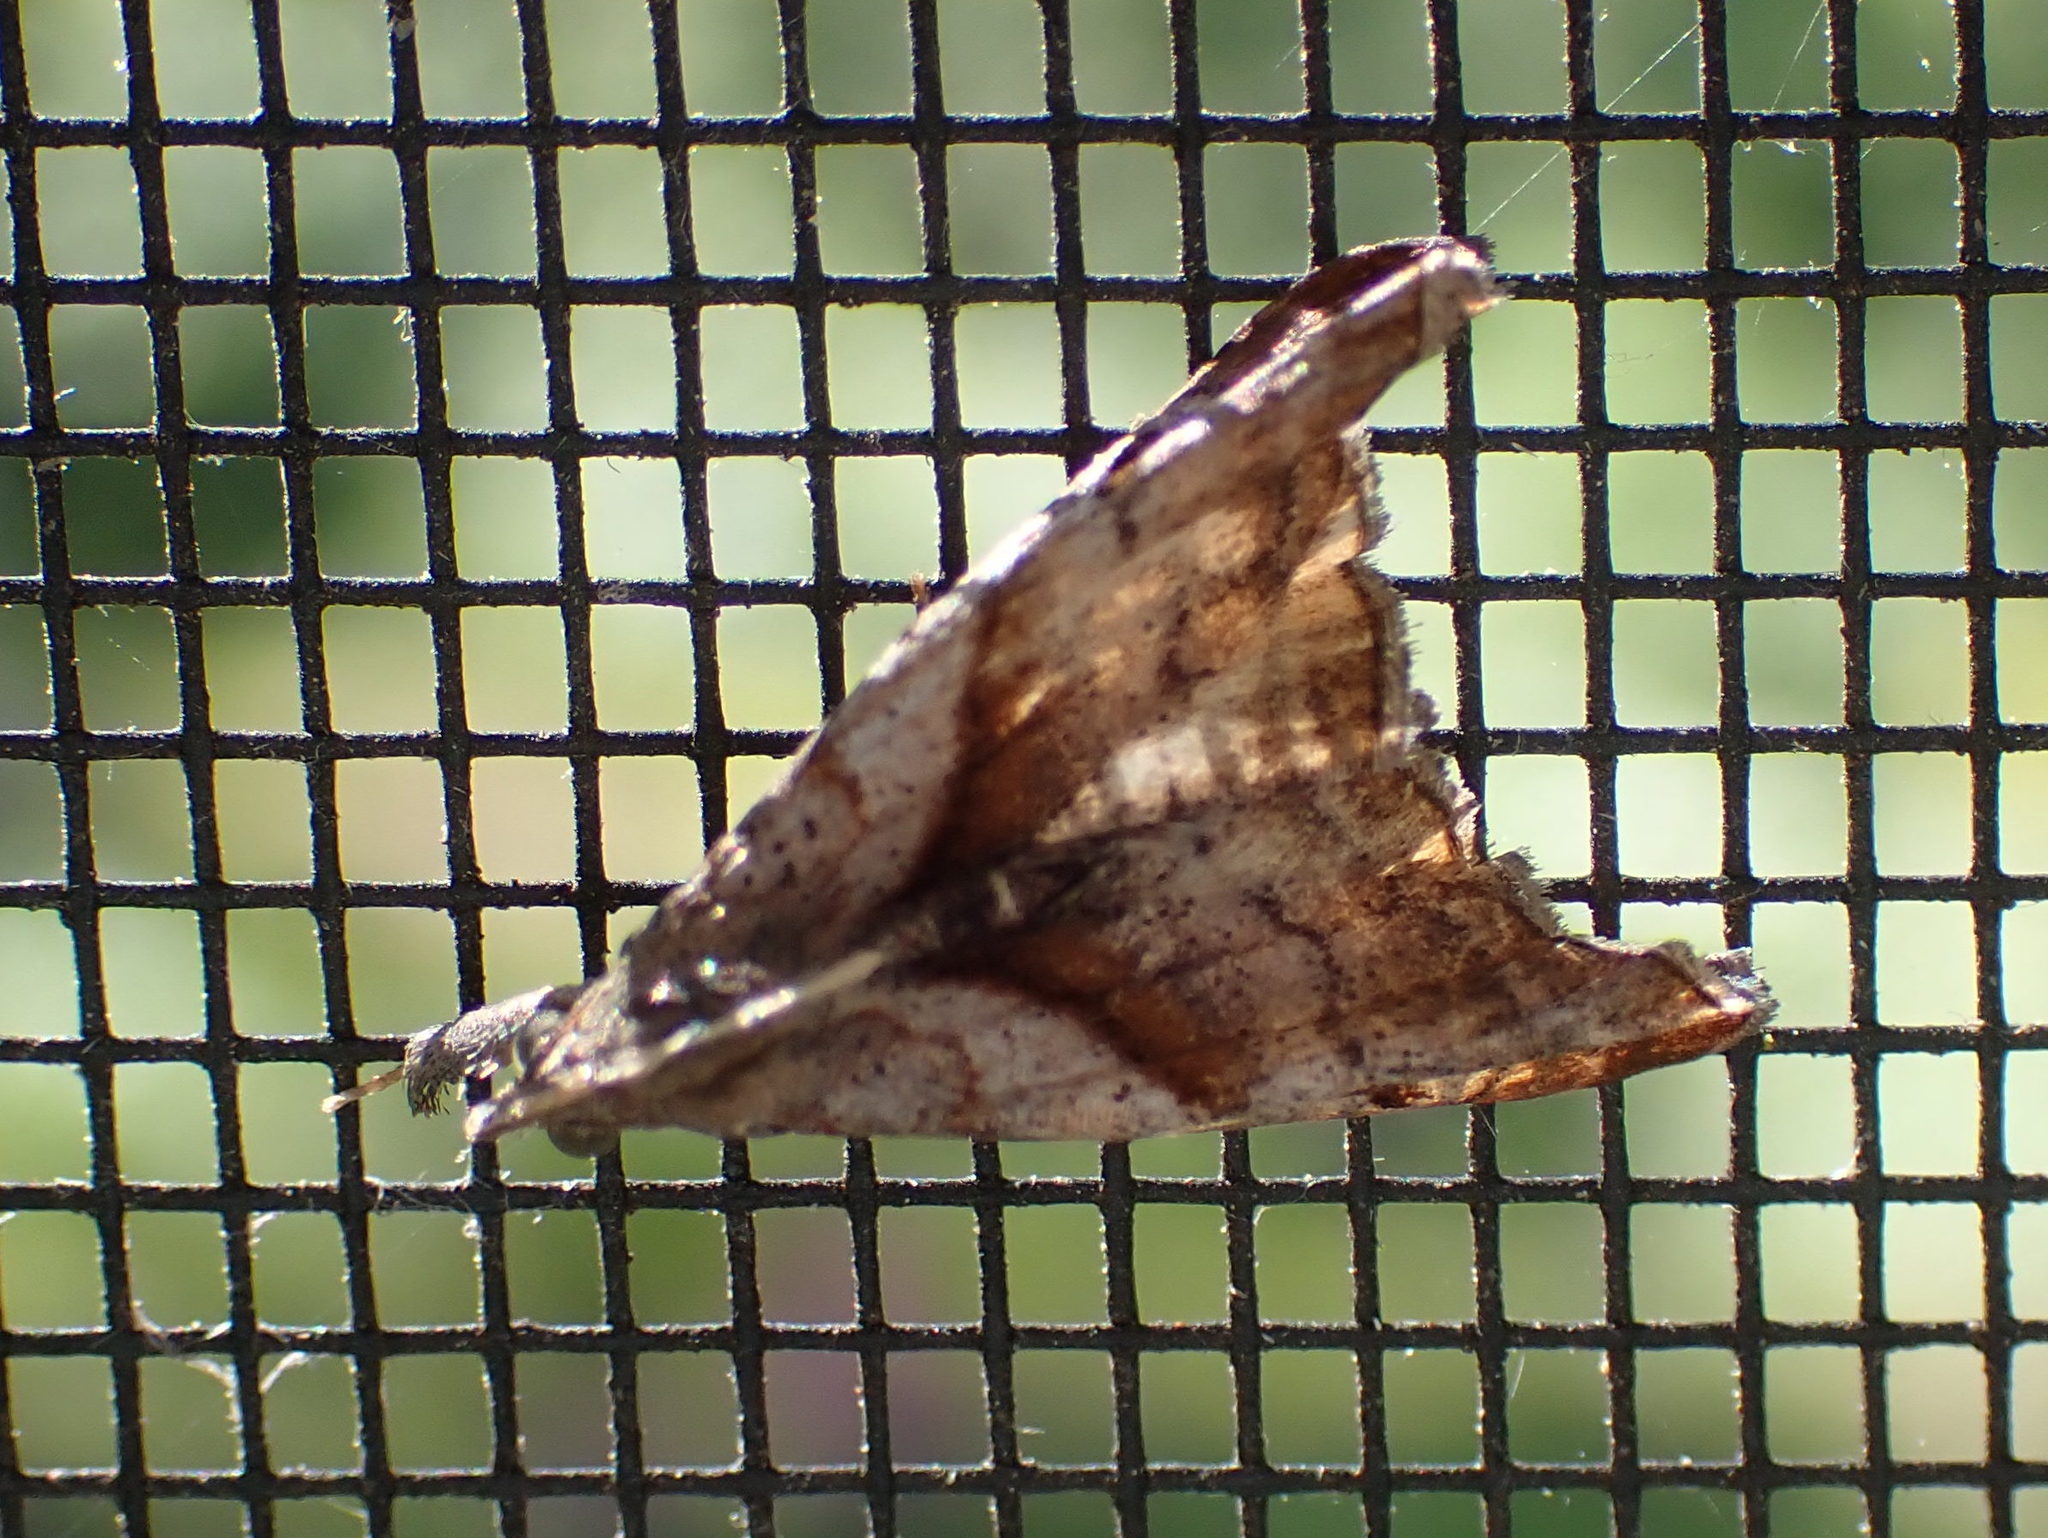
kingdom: Animalia
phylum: Arthropoda
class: Insecta
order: Lepidoptera
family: Erebidae
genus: Palthis
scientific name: Palthis angulalis
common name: Dark-spotted palthis moth
